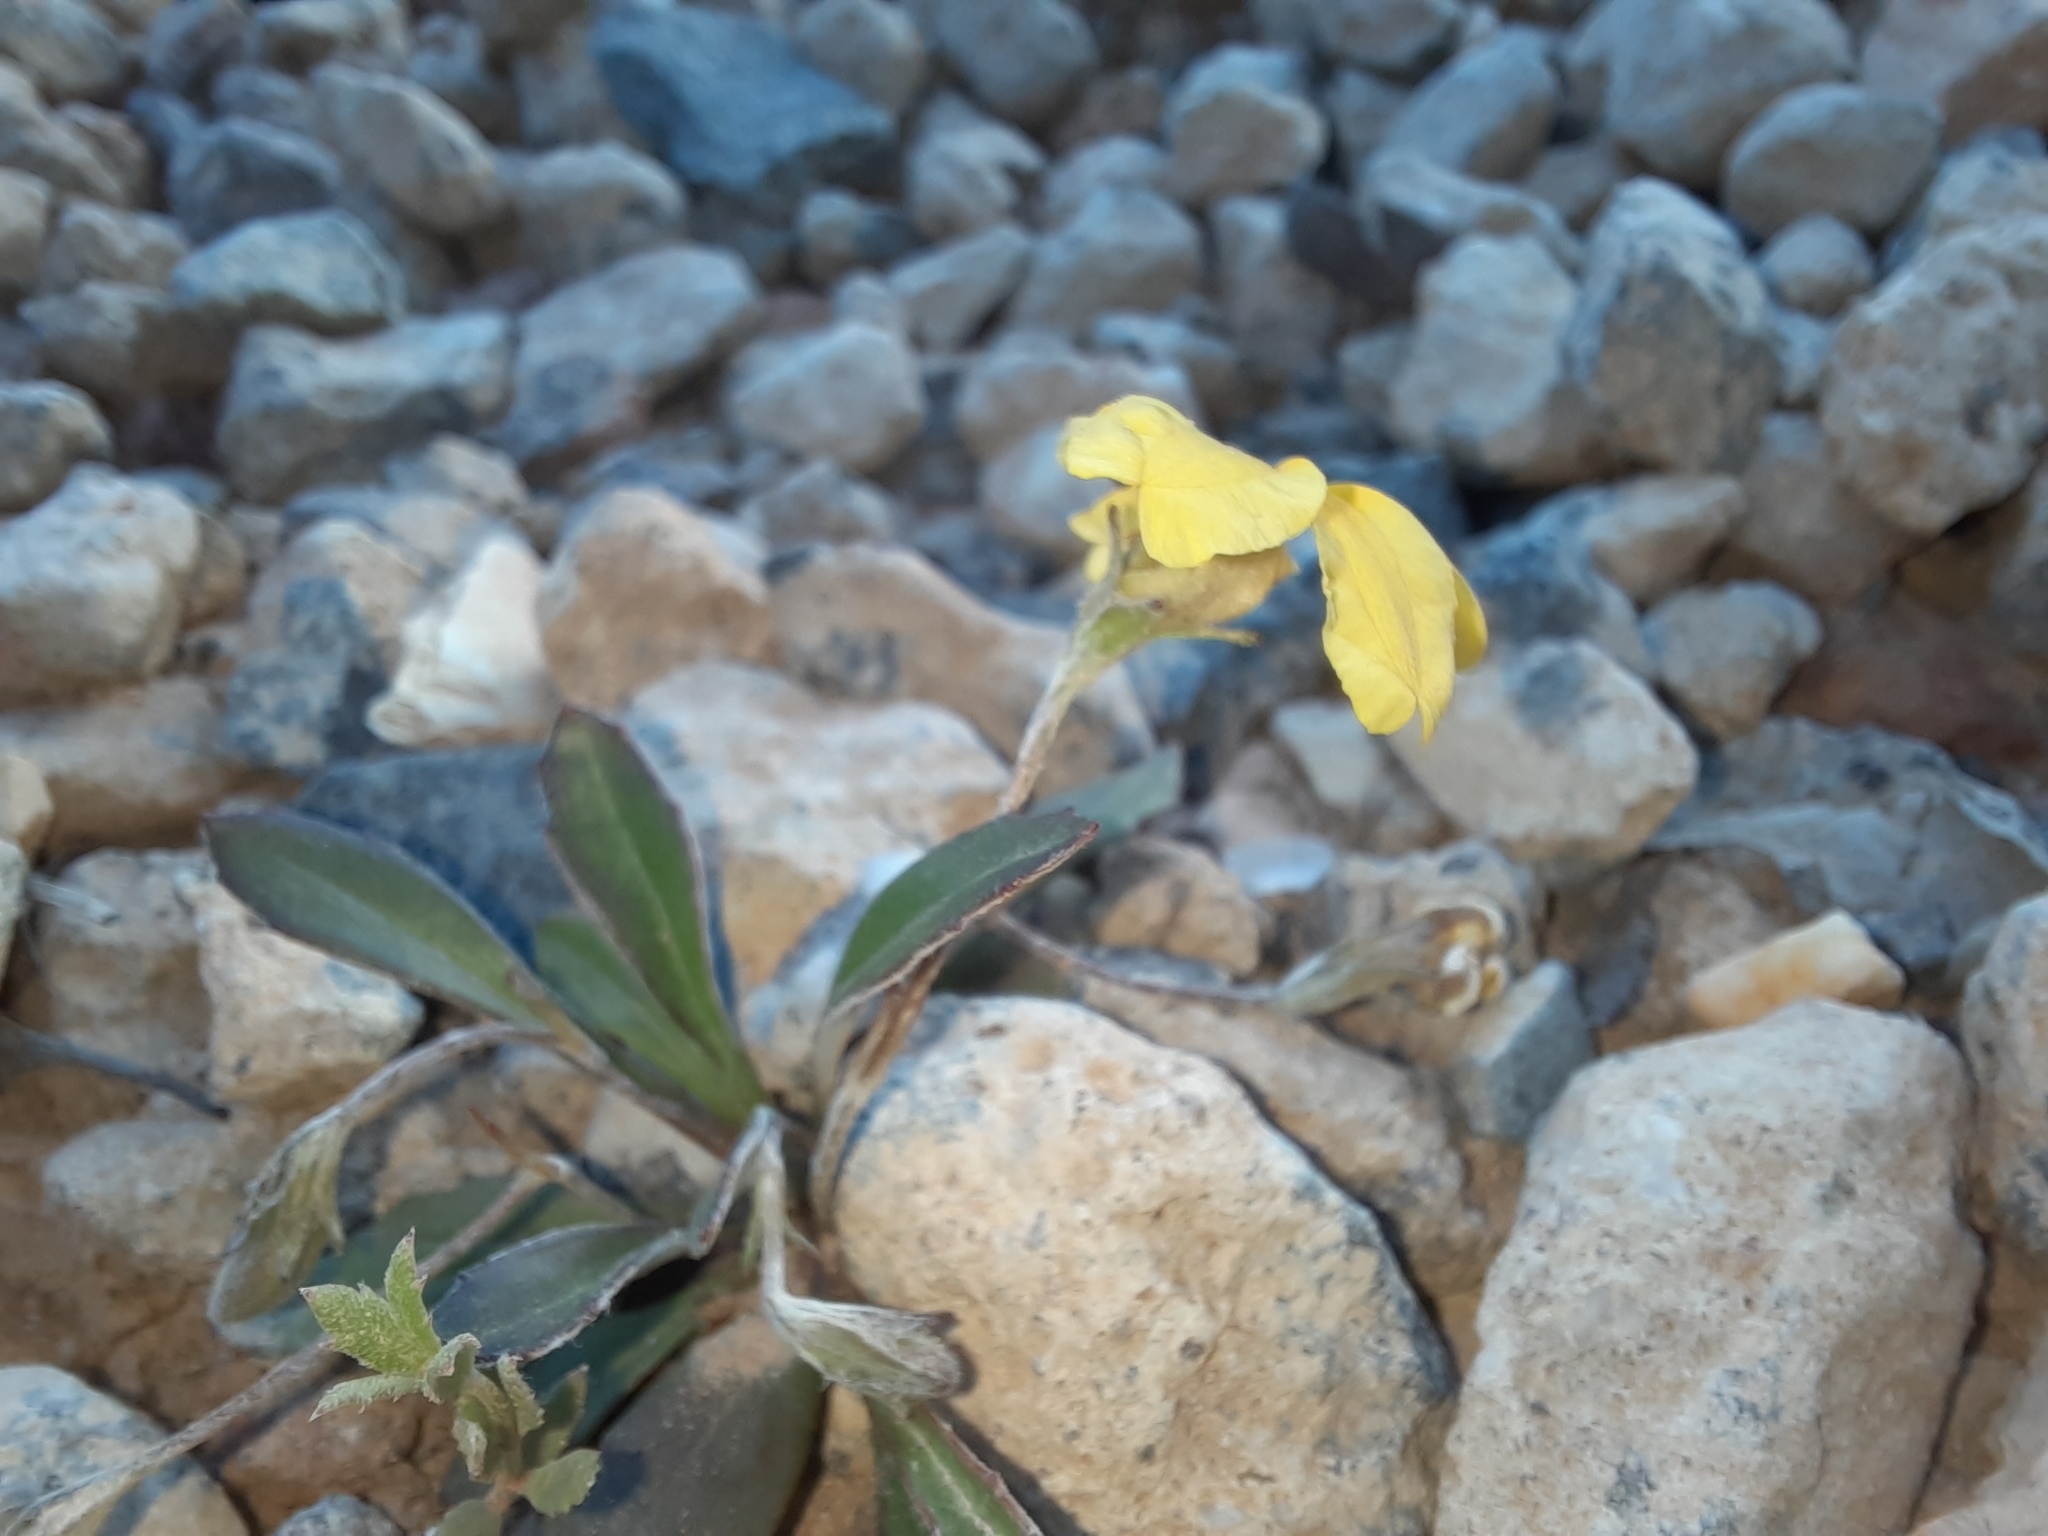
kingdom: Plantae
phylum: Tracheophyta
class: Magnoliopsida
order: Asterales
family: Goodeniaceae
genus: Goodenia
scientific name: Goodenia blackiana
